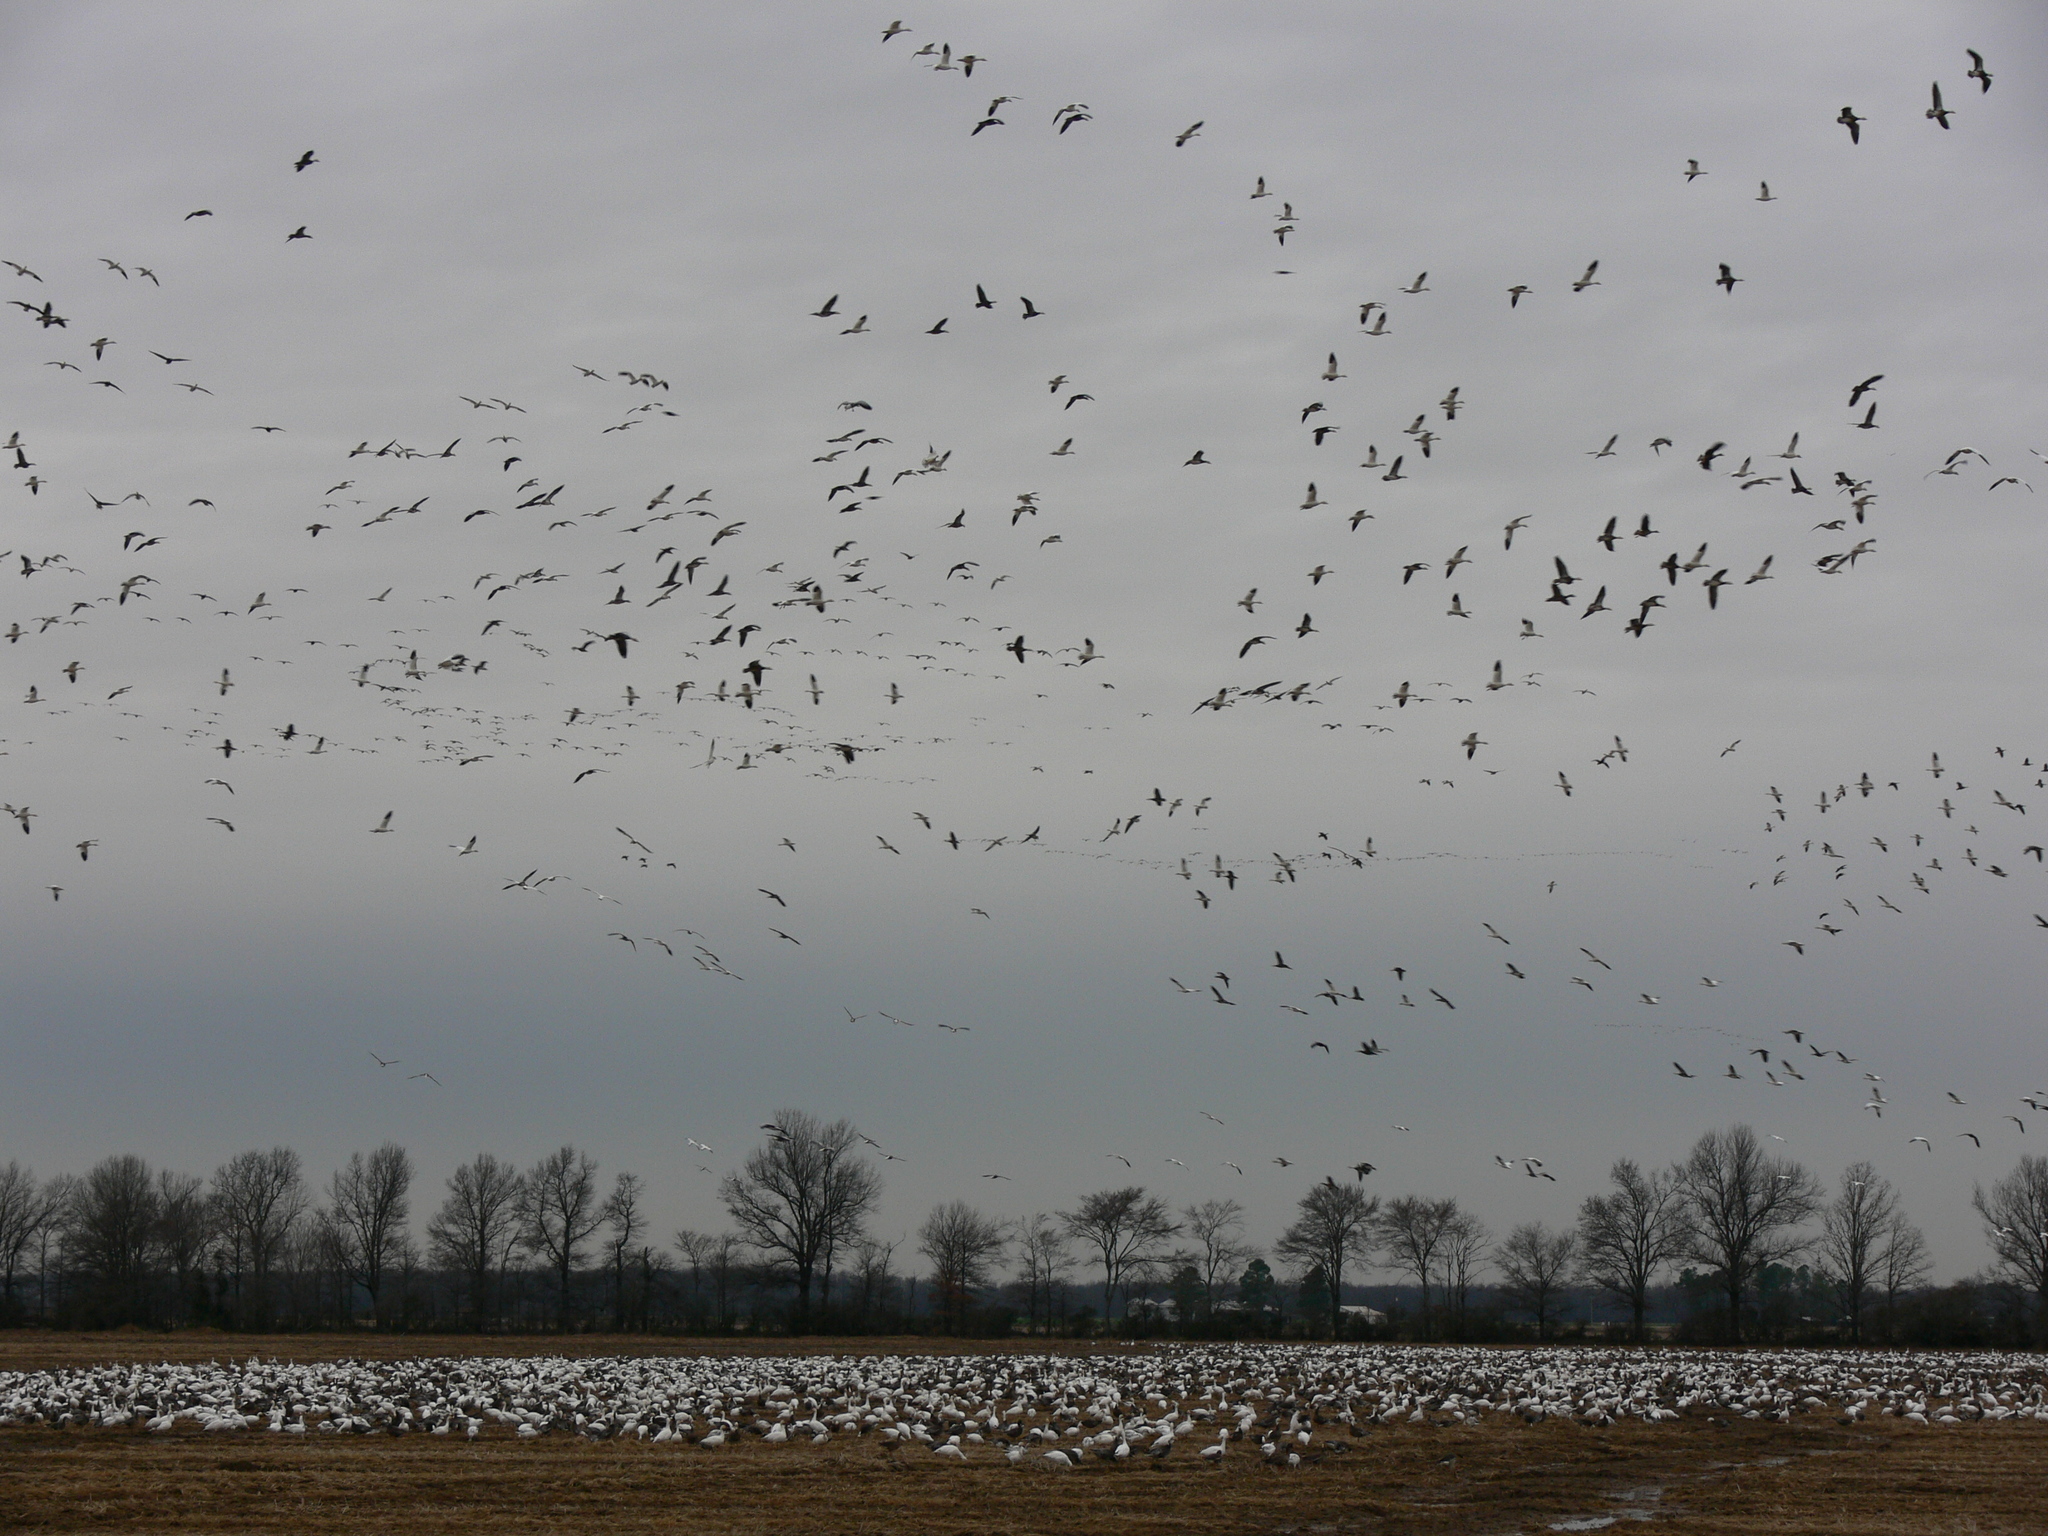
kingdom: Animalia
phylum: Chordata
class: Aves
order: Anseriformes
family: Anatidae
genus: Anser
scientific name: Anser caerulescens
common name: Snow goose
